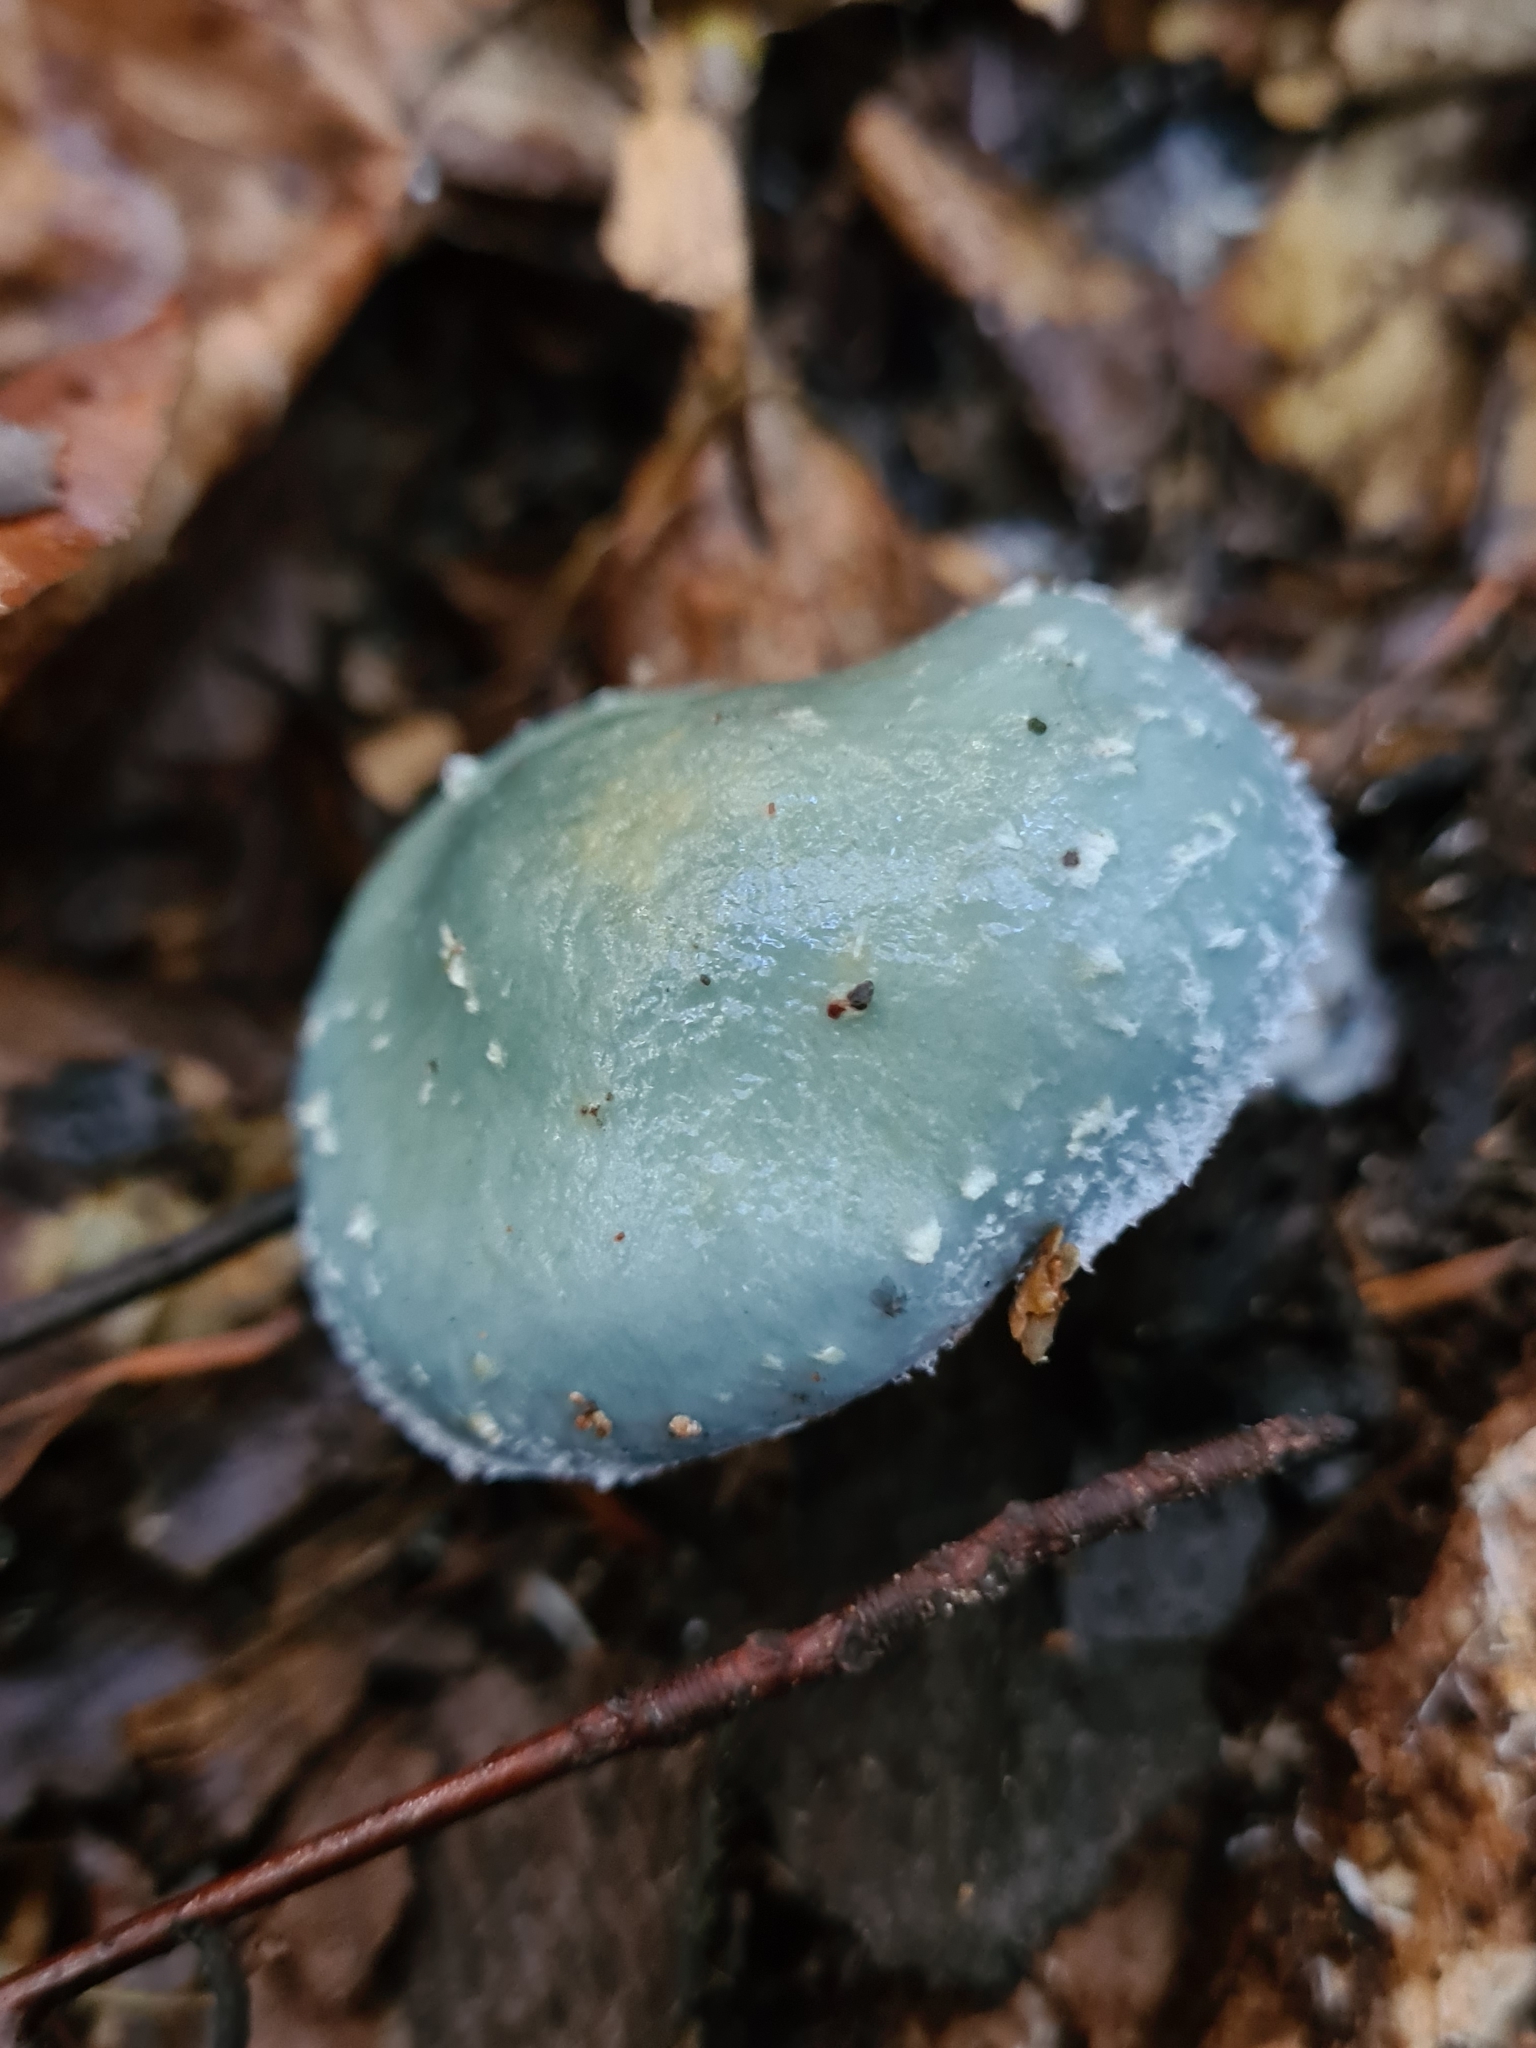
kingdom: Fungi
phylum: Basidiomycota
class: Agaricomycetes
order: Agaricales
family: Strophariaceae
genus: Stropharia
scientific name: Stropharia aeruginosa
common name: Verdigris roundhead
